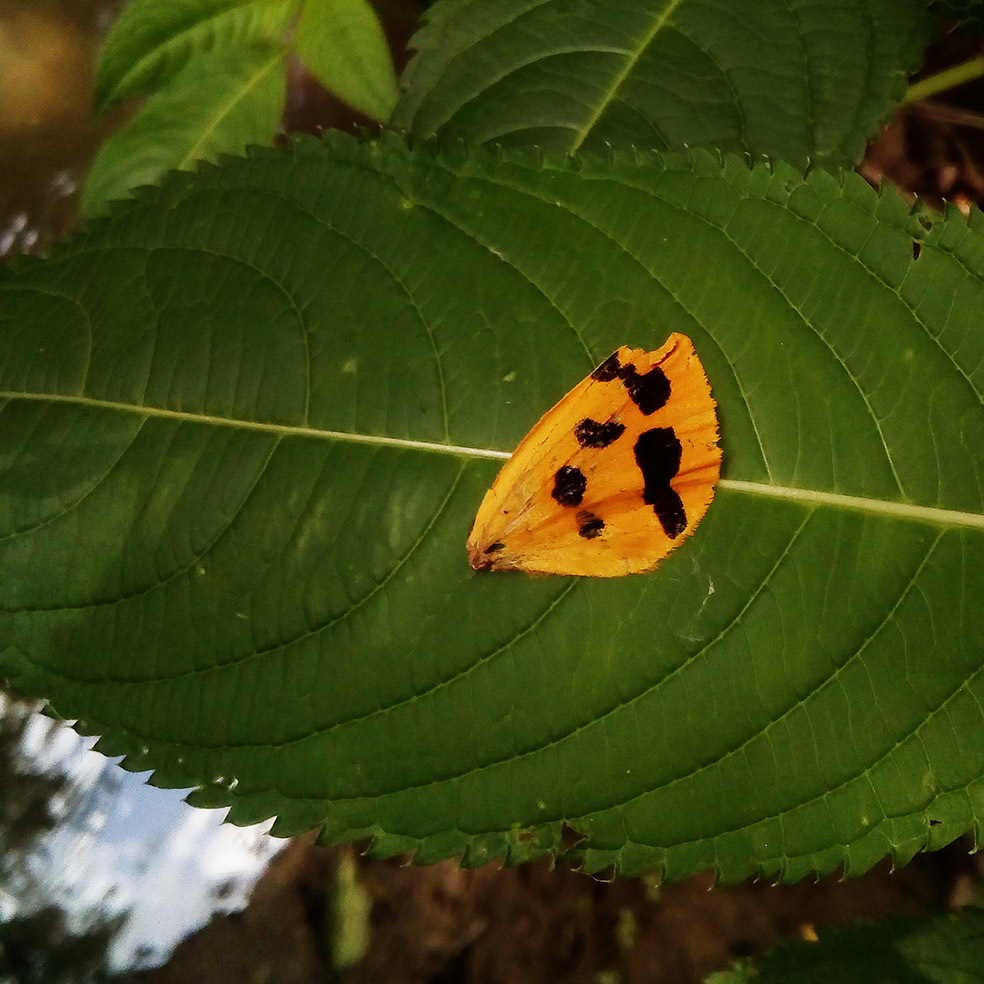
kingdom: Animalia
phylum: Arthropoda
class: Insecta
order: Lepidoptera
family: Erebidae
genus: Pericallia
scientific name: Pericallia matronula
